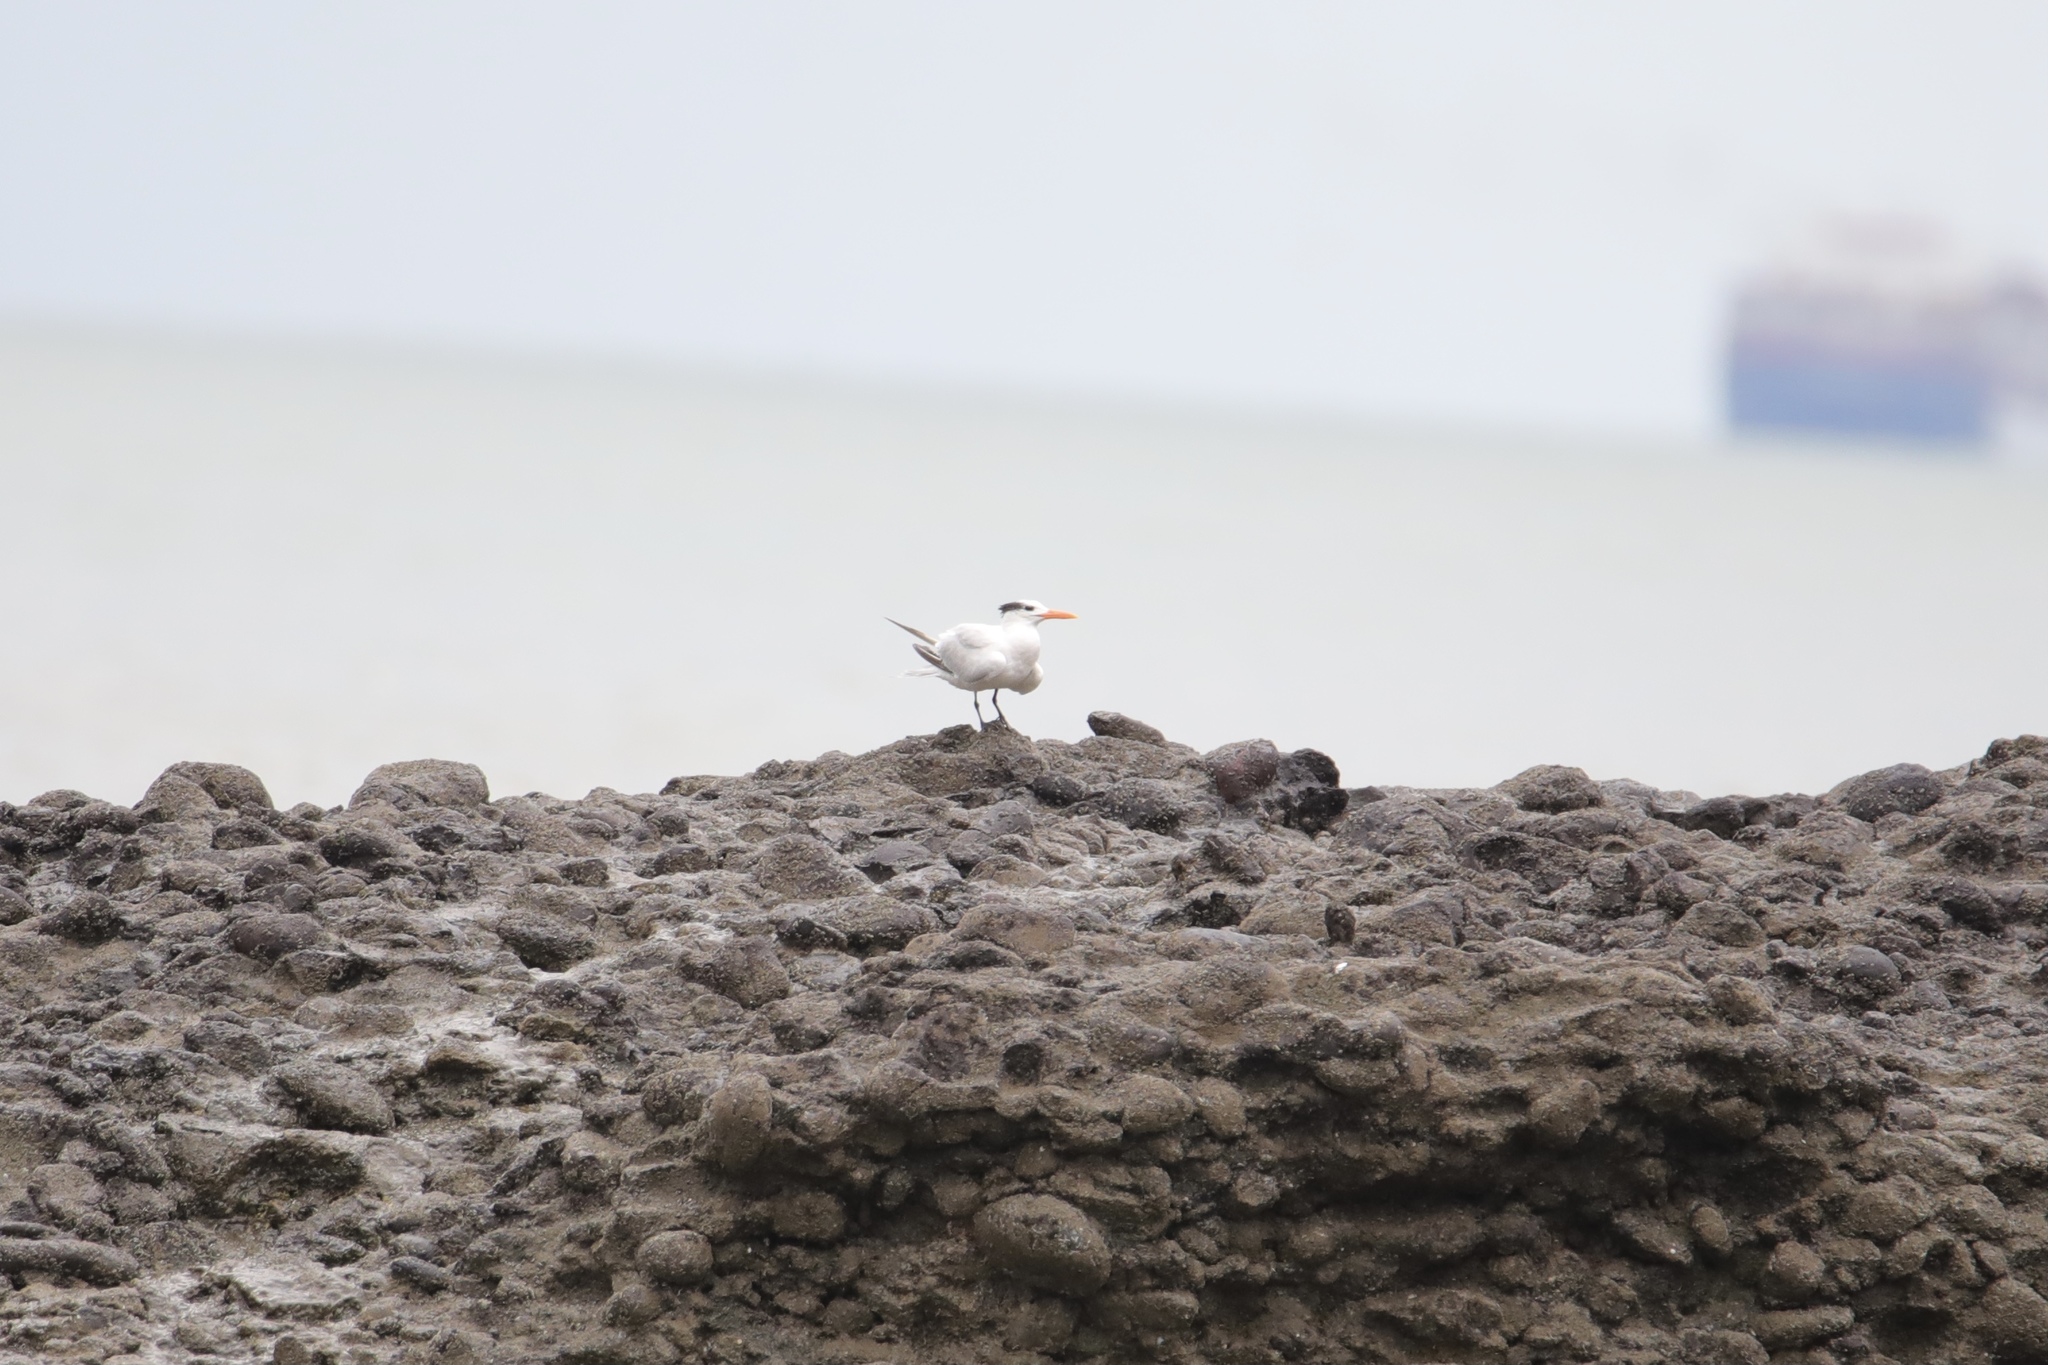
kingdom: Animalia
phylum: Chordata
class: Aves
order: Charadriiformes
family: Laridae
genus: Thalasseus
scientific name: Thalasseus maximus
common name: Royal tern
